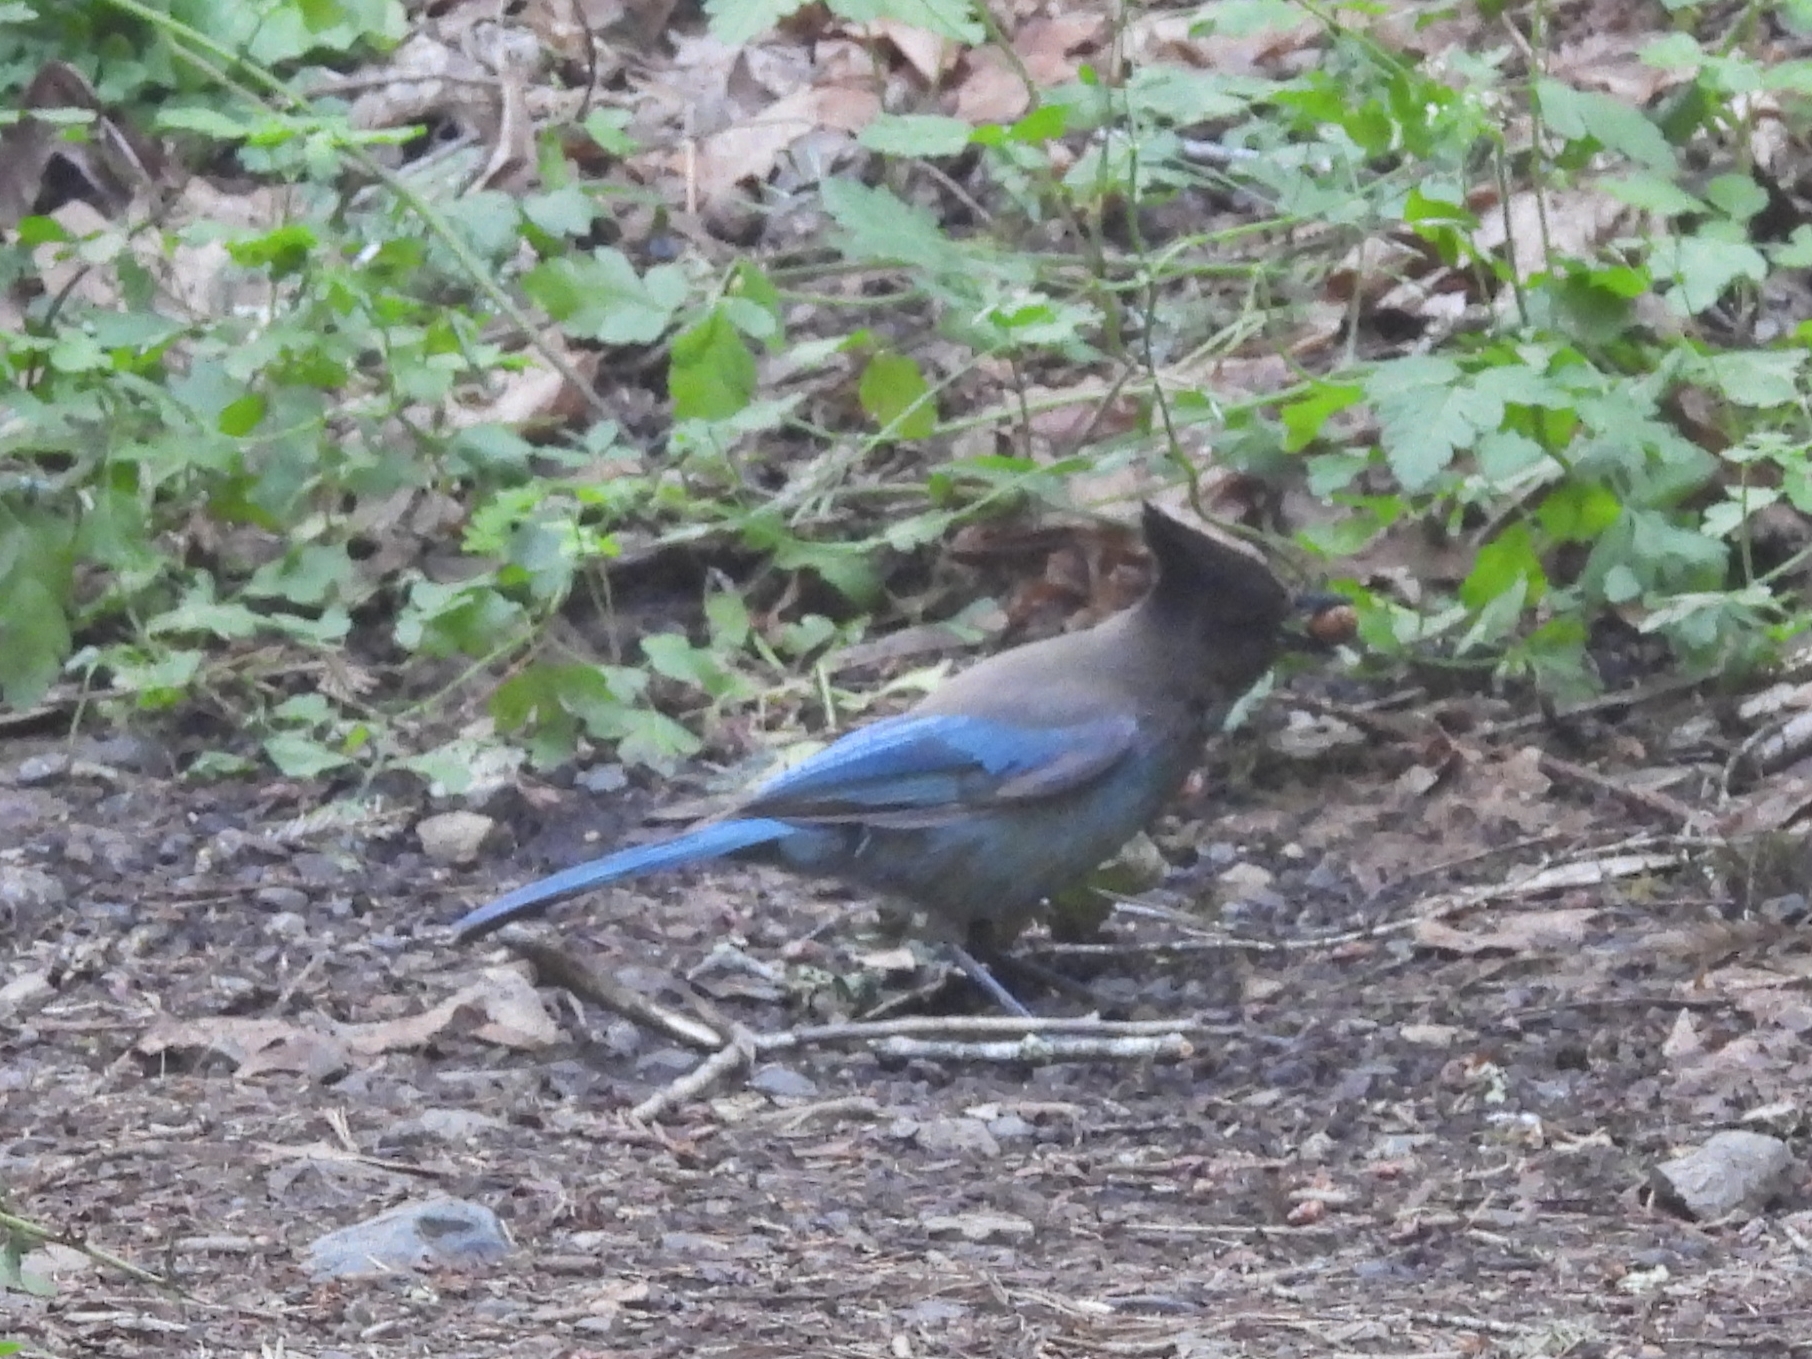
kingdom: Animalia
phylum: Chordata
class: Aves
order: Passeriformes
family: Corvidae
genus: Cyanocitta
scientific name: Cyanocitta stelleri
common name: Steller's jay
